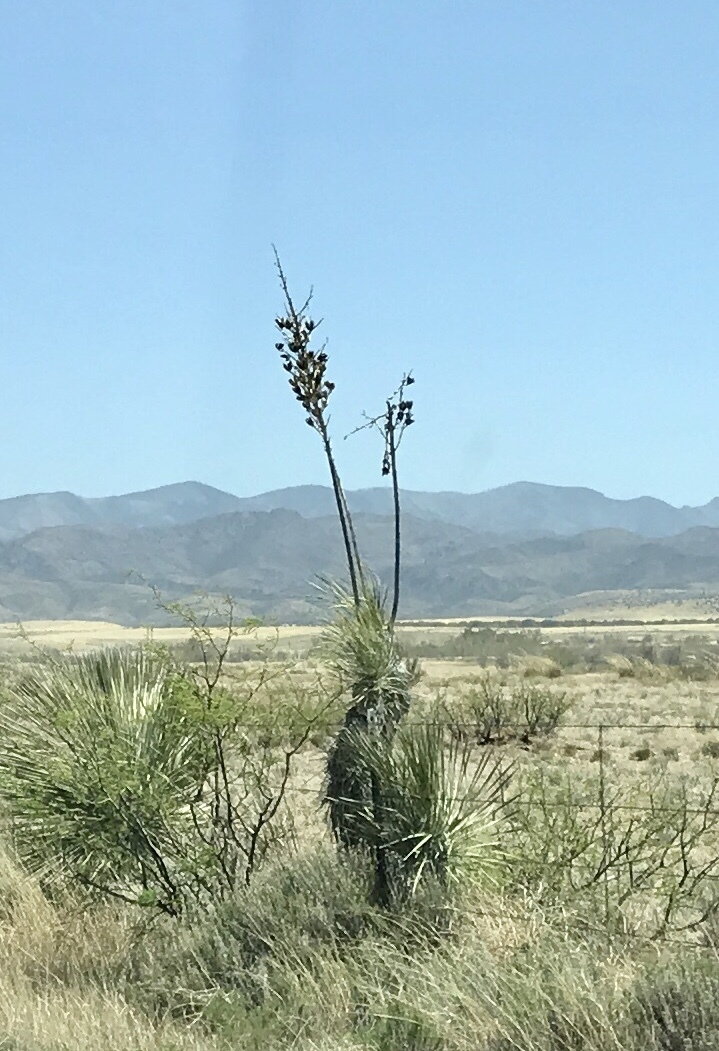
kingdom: Plantae
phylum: Tracheophyta
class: Liliopsida
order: Asparagales
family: Asparagaceae
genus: Yucca
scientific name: Yucca elata
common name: Palmella
